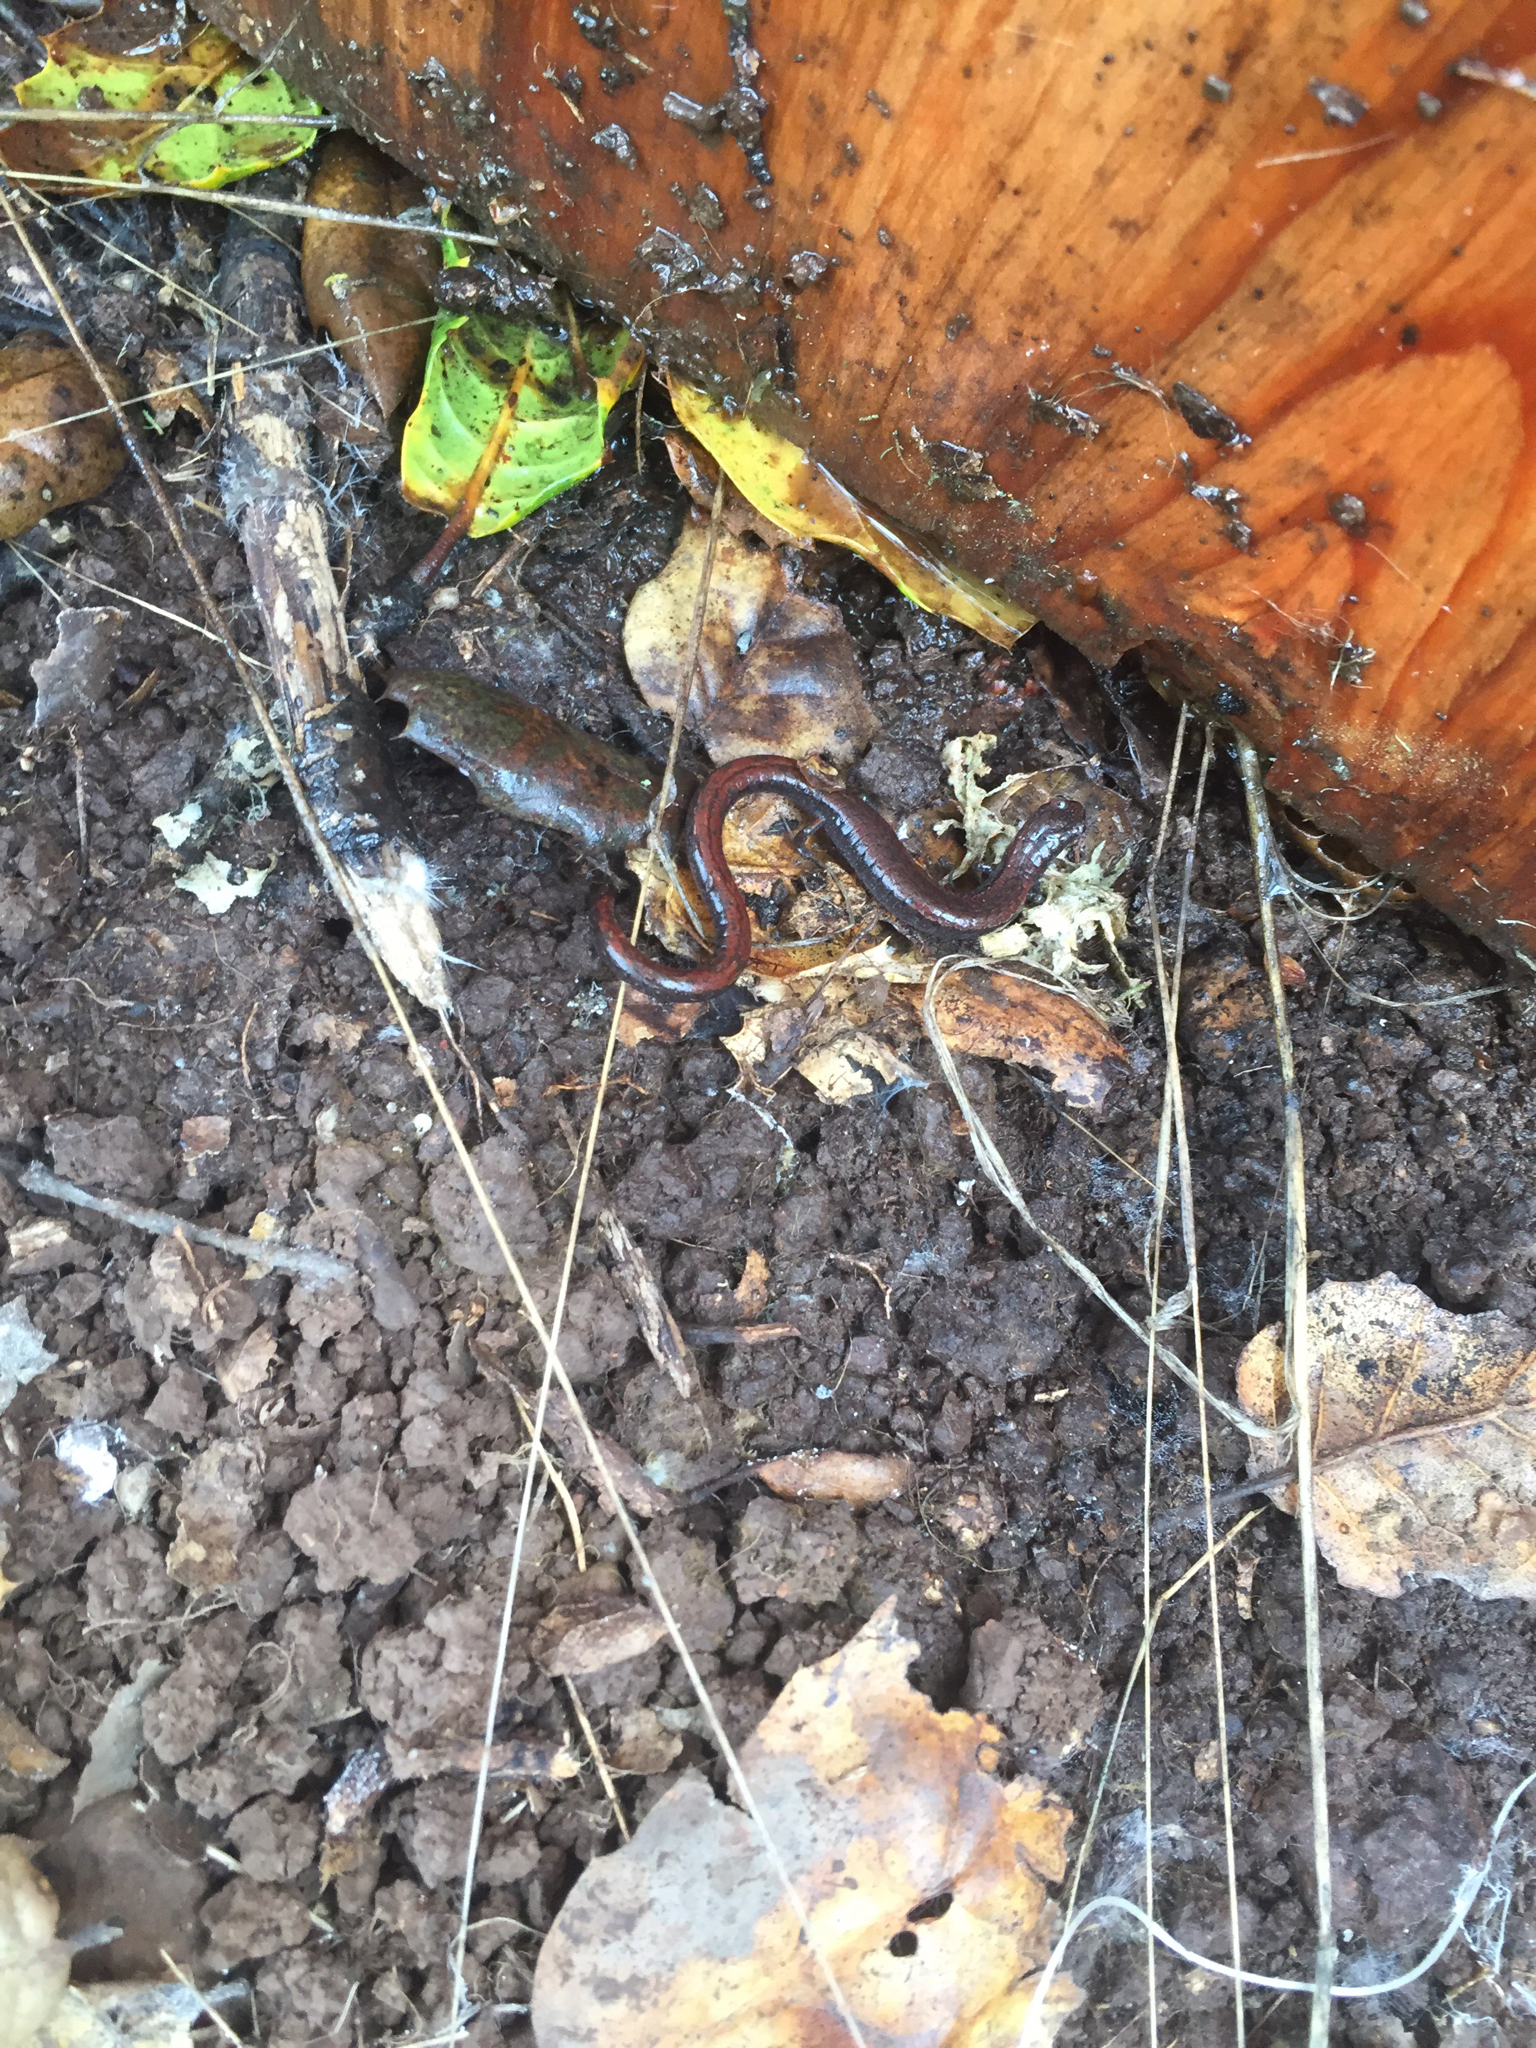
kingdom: Animalia
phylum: Chordata
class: Amphibia
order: Caudata
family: Plethodontidae
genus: Batrachoseps
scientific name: Batrachoseps attenuatus
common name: California slender salamander
